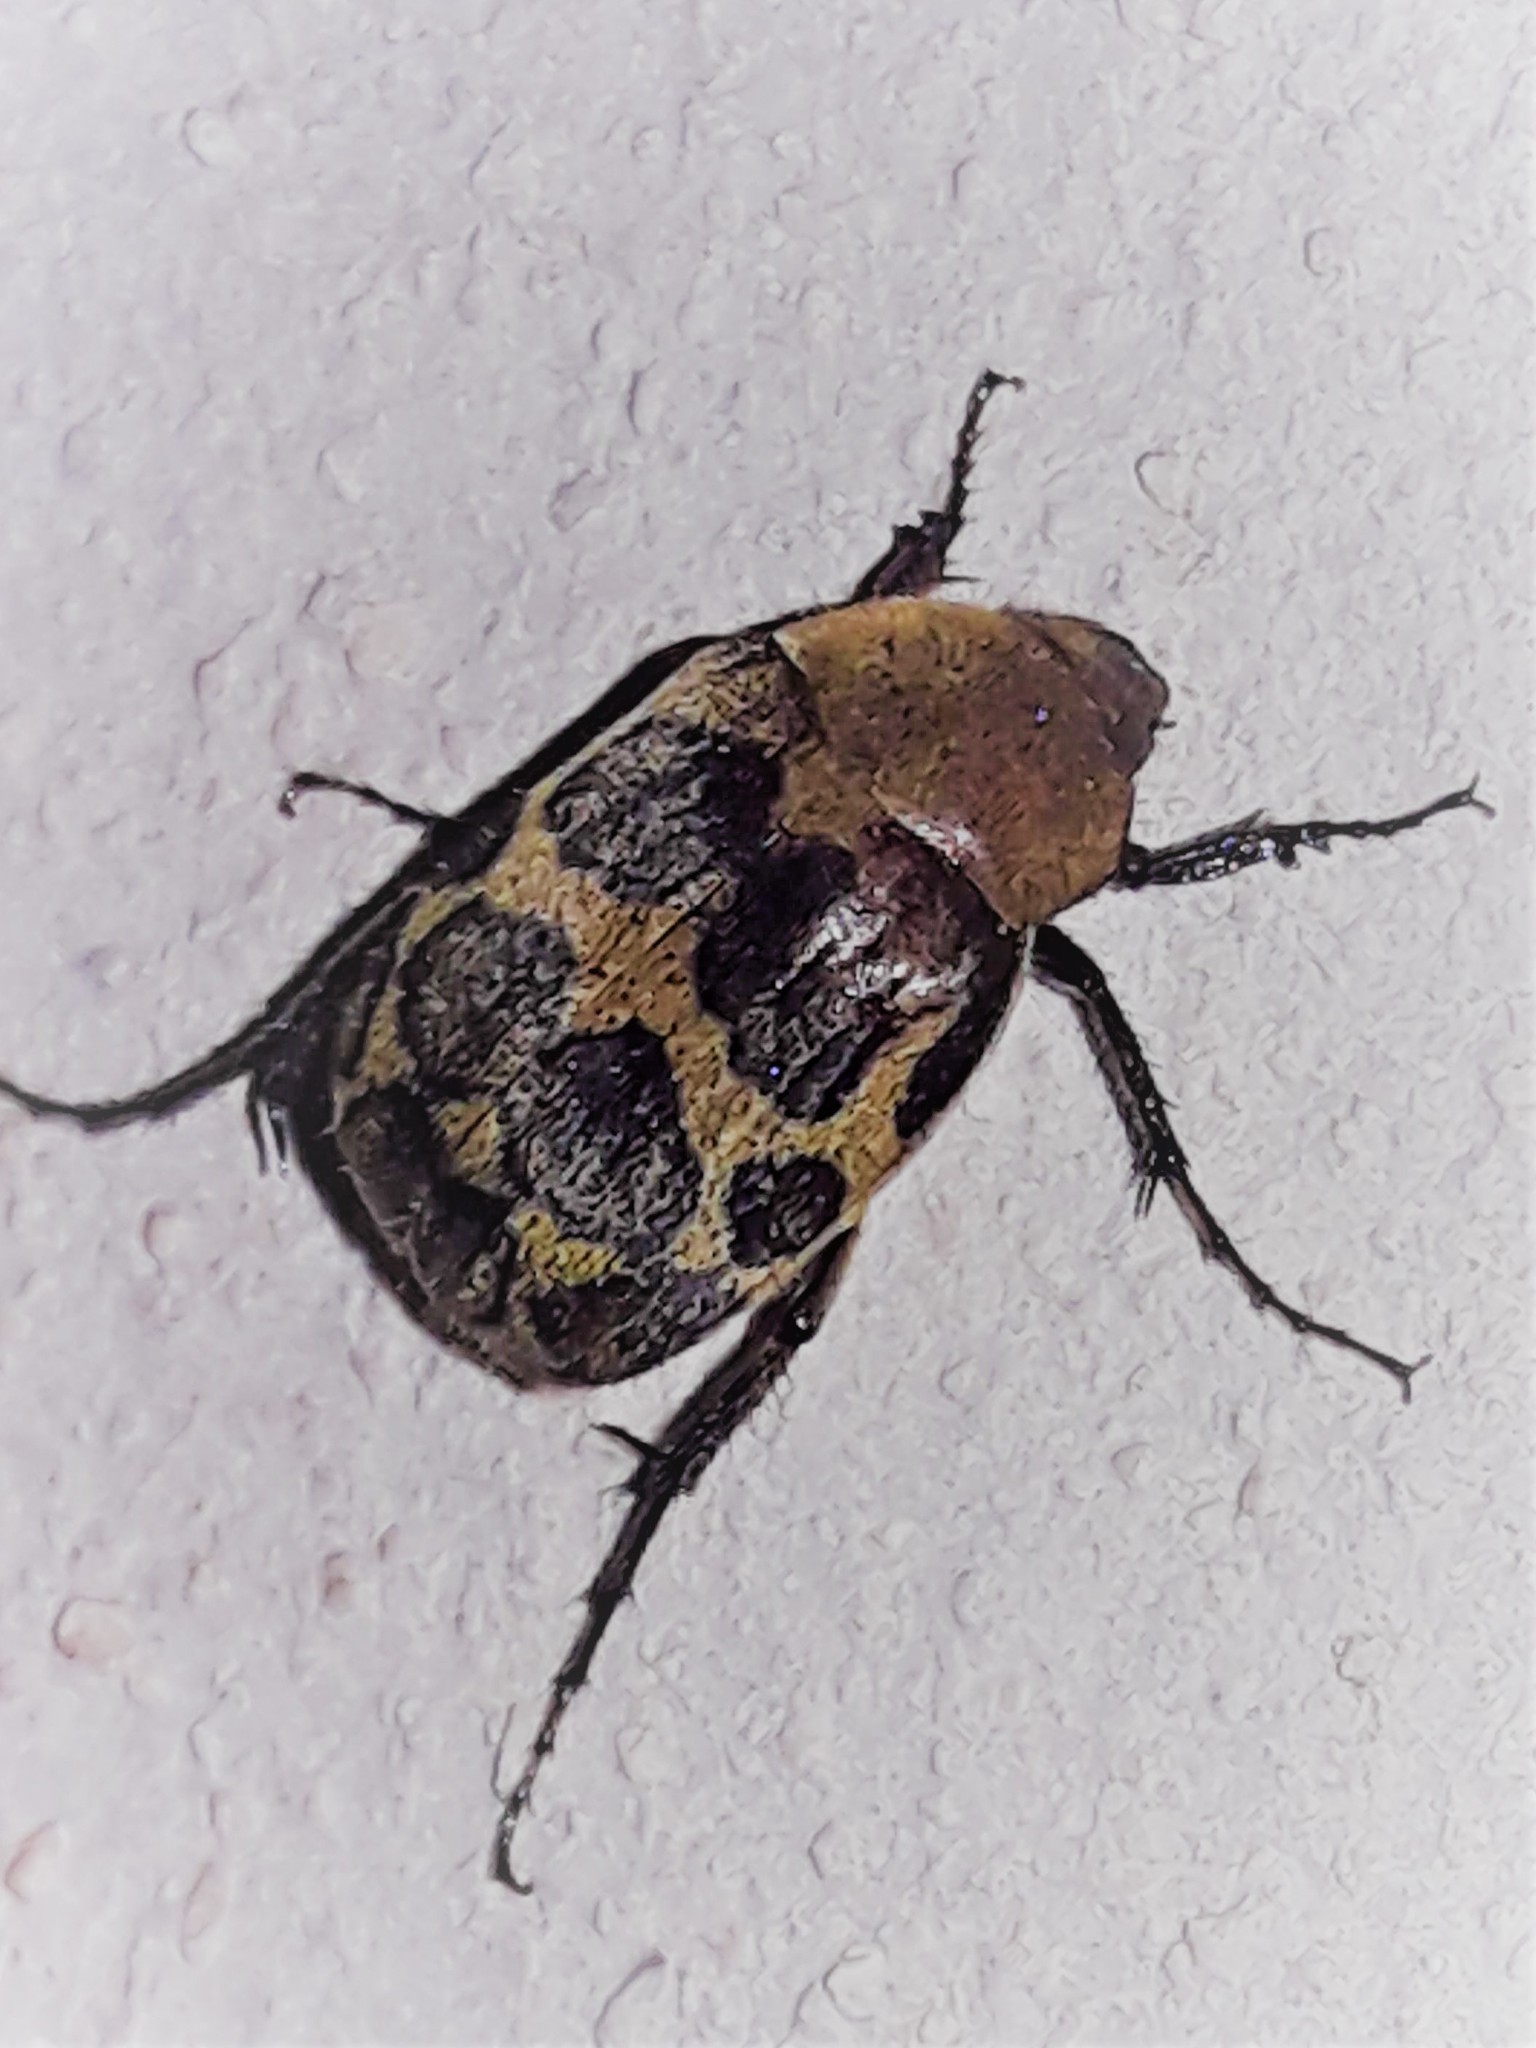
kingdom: Animalia
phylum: Arthropoda
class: Insecta
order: Coleoptera
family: Scarabaeidae
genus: Isonychus
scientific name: Isonychus pictus
